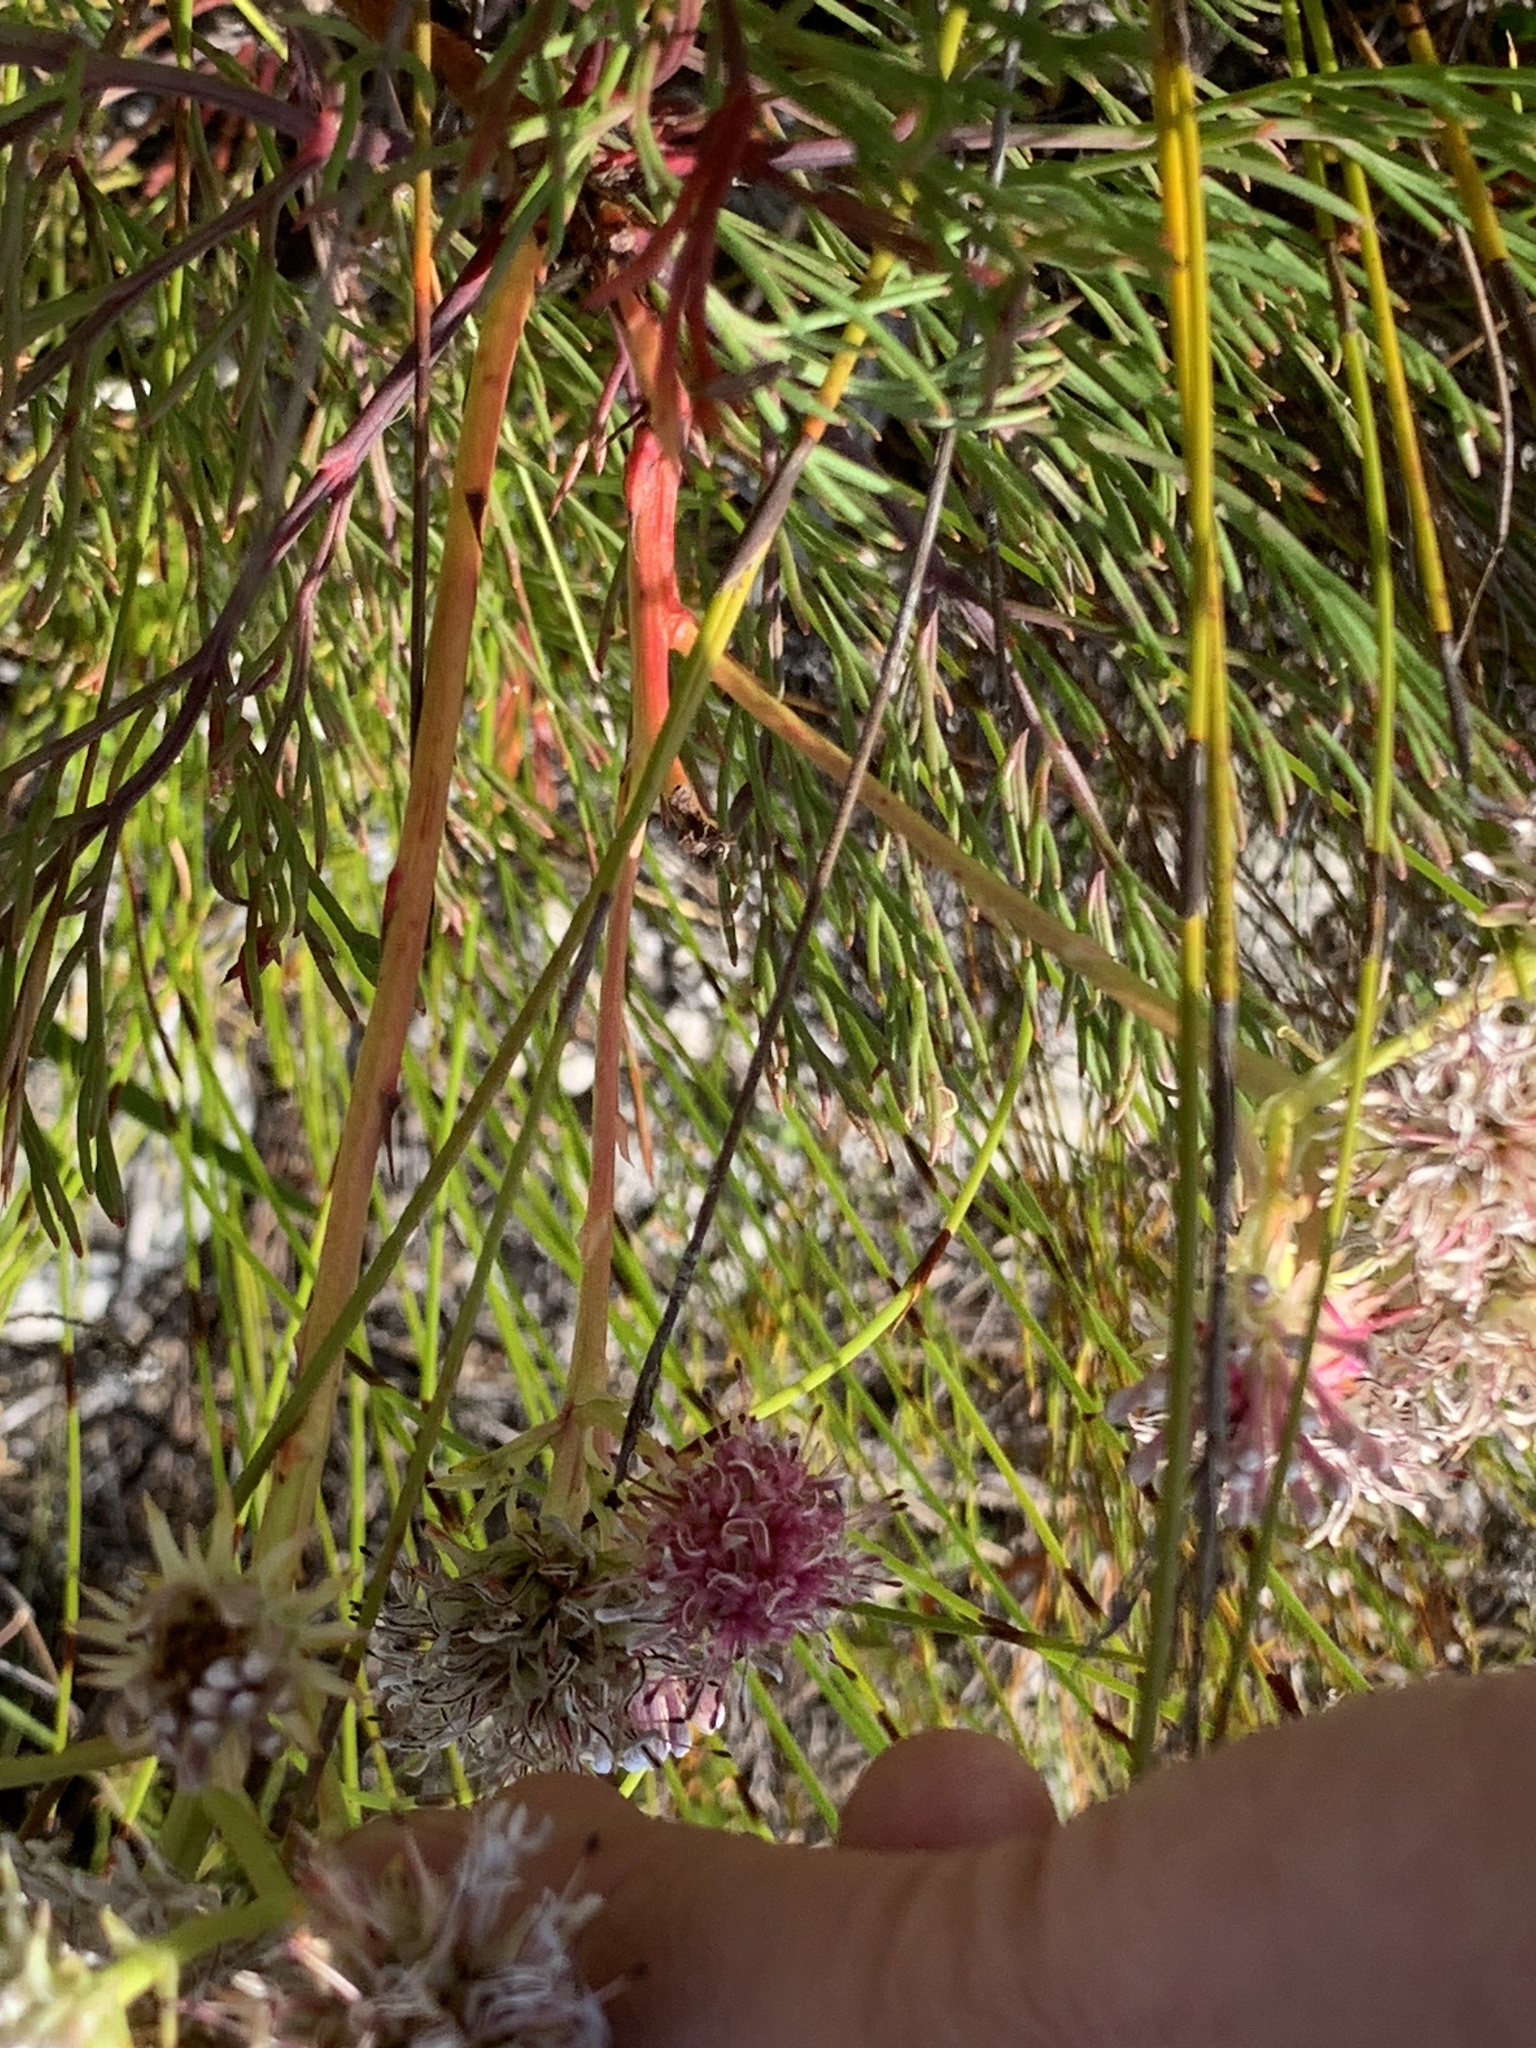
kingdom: Plantae
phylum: Tracheophyta
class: Magnoliopsida
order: Proteales
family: Proteaceae
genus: Serruria
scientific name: Serruria elongata
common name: Long-stalk spiderhead
